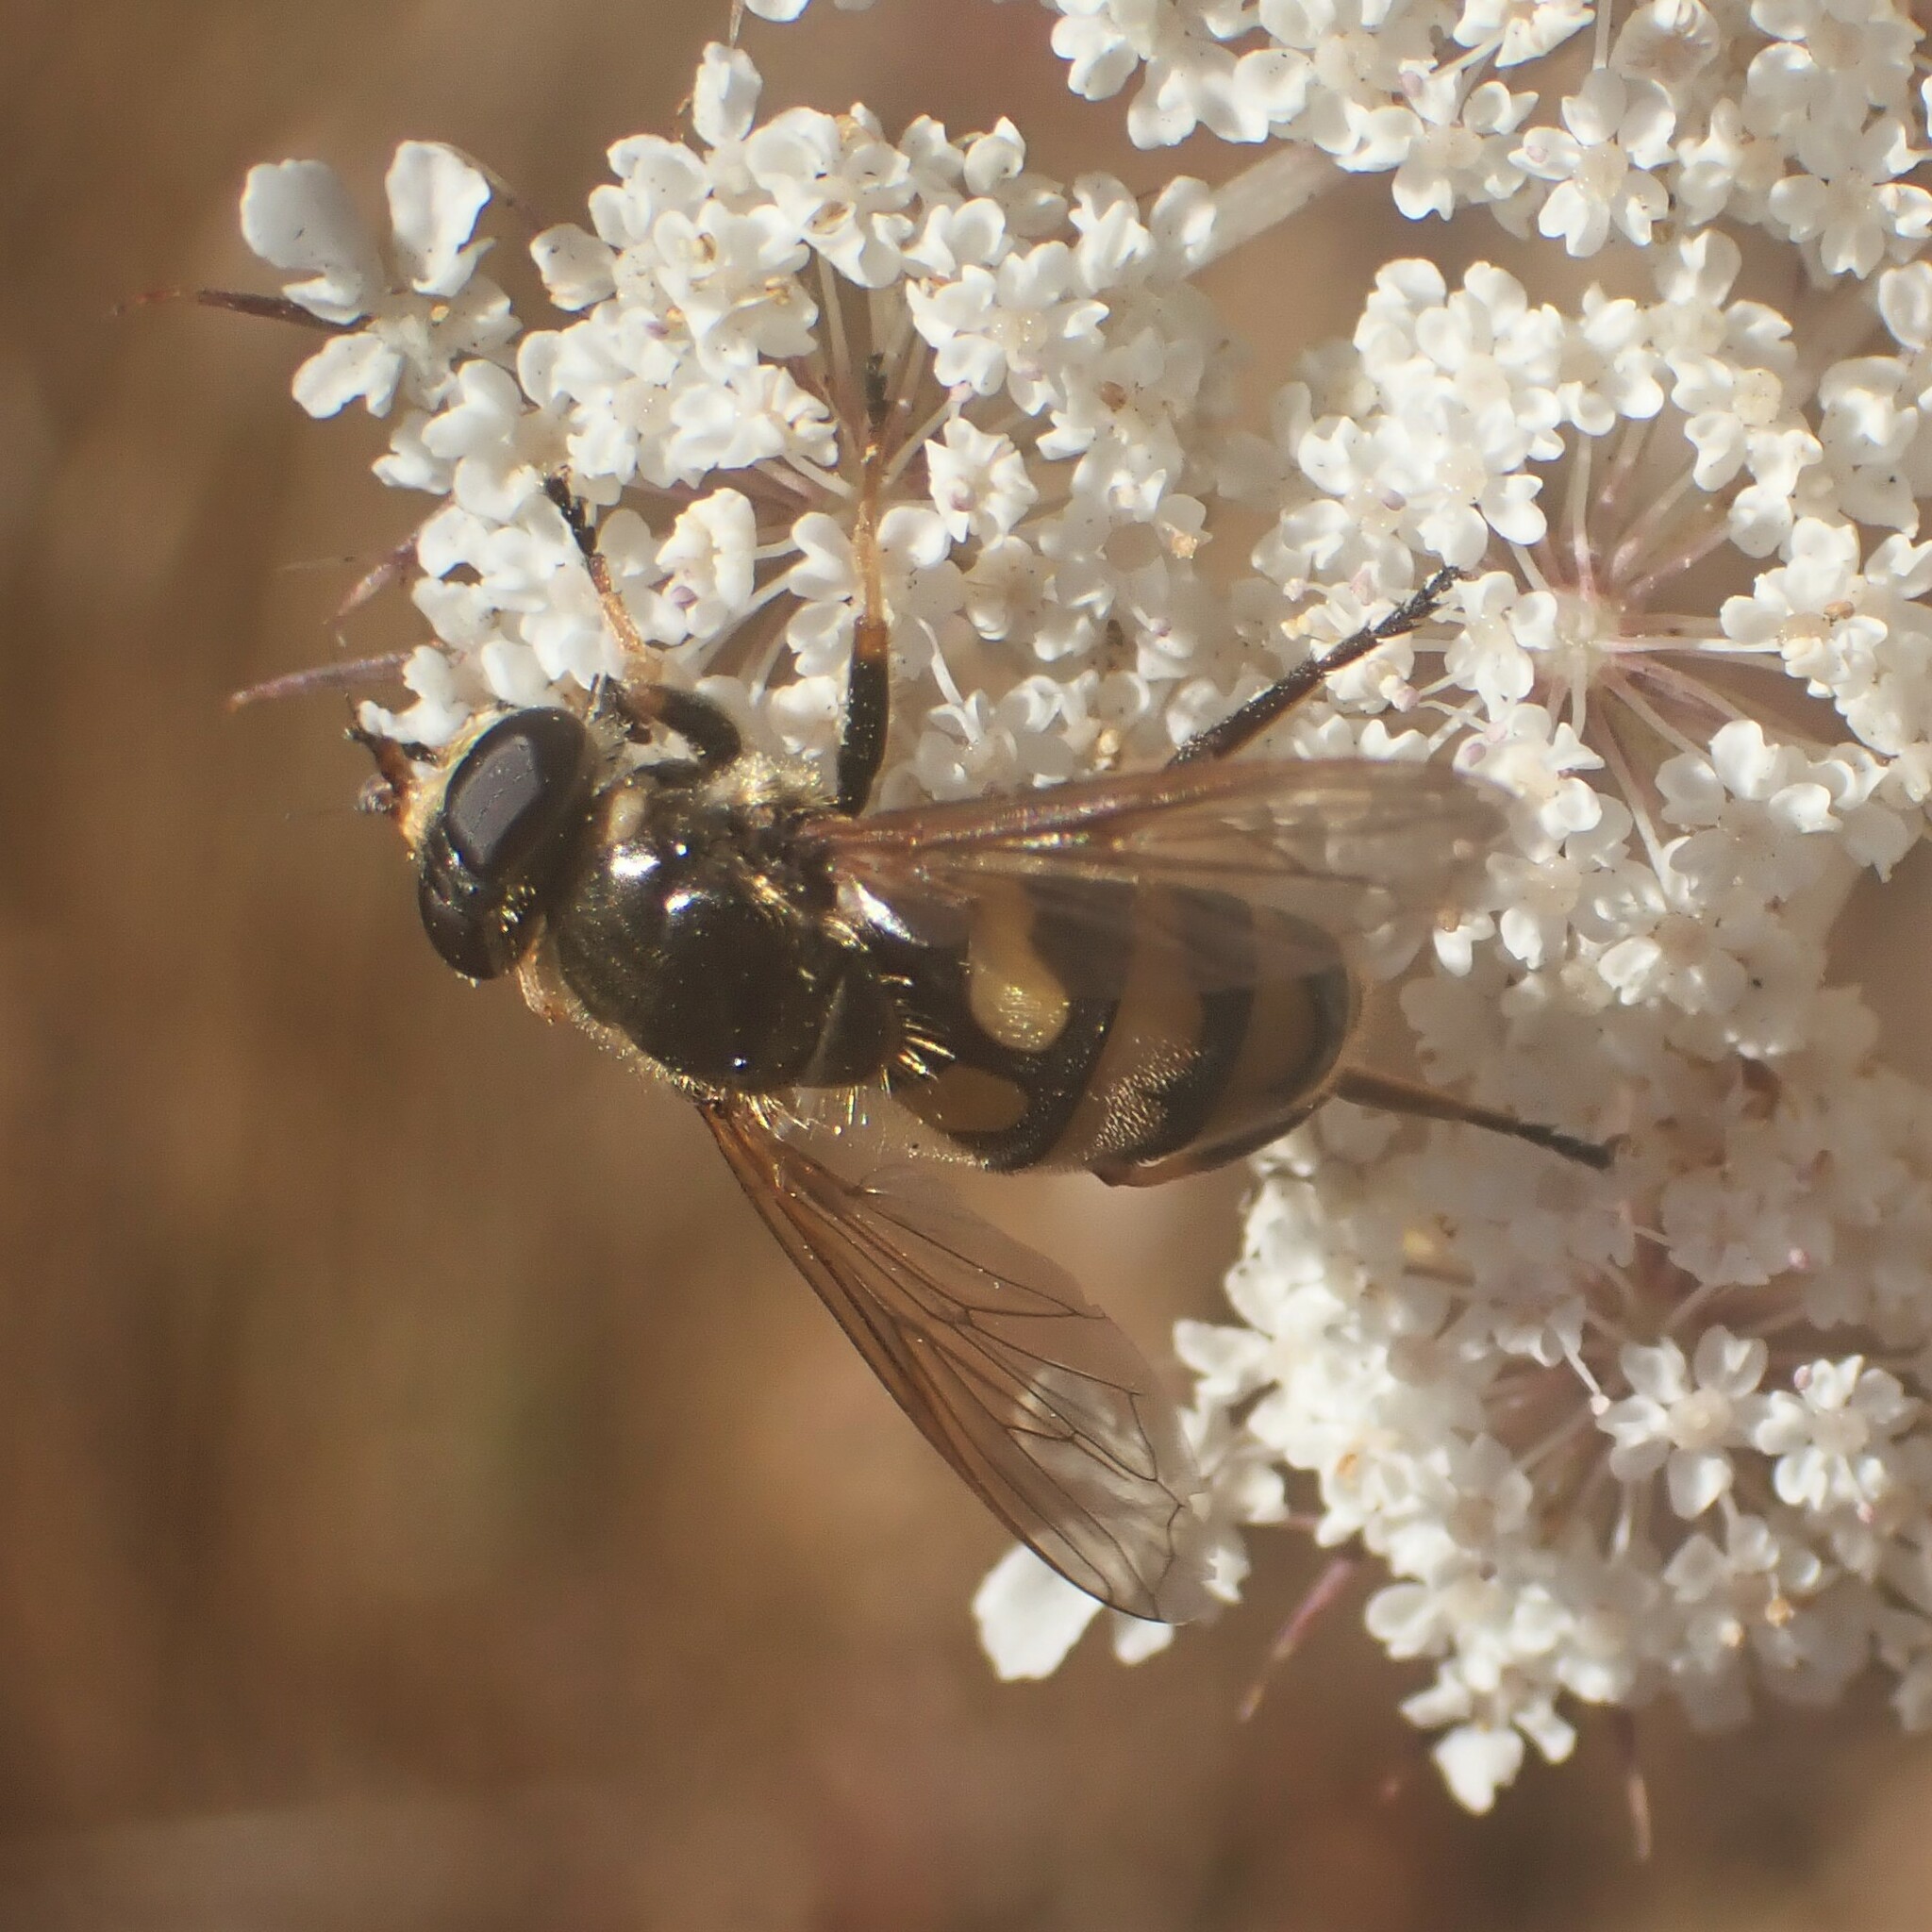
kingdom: Animalia
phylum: Arthropoda
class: Insecta
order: Diptera
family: Syrphidae
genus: Blera
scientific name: Blera scitula
